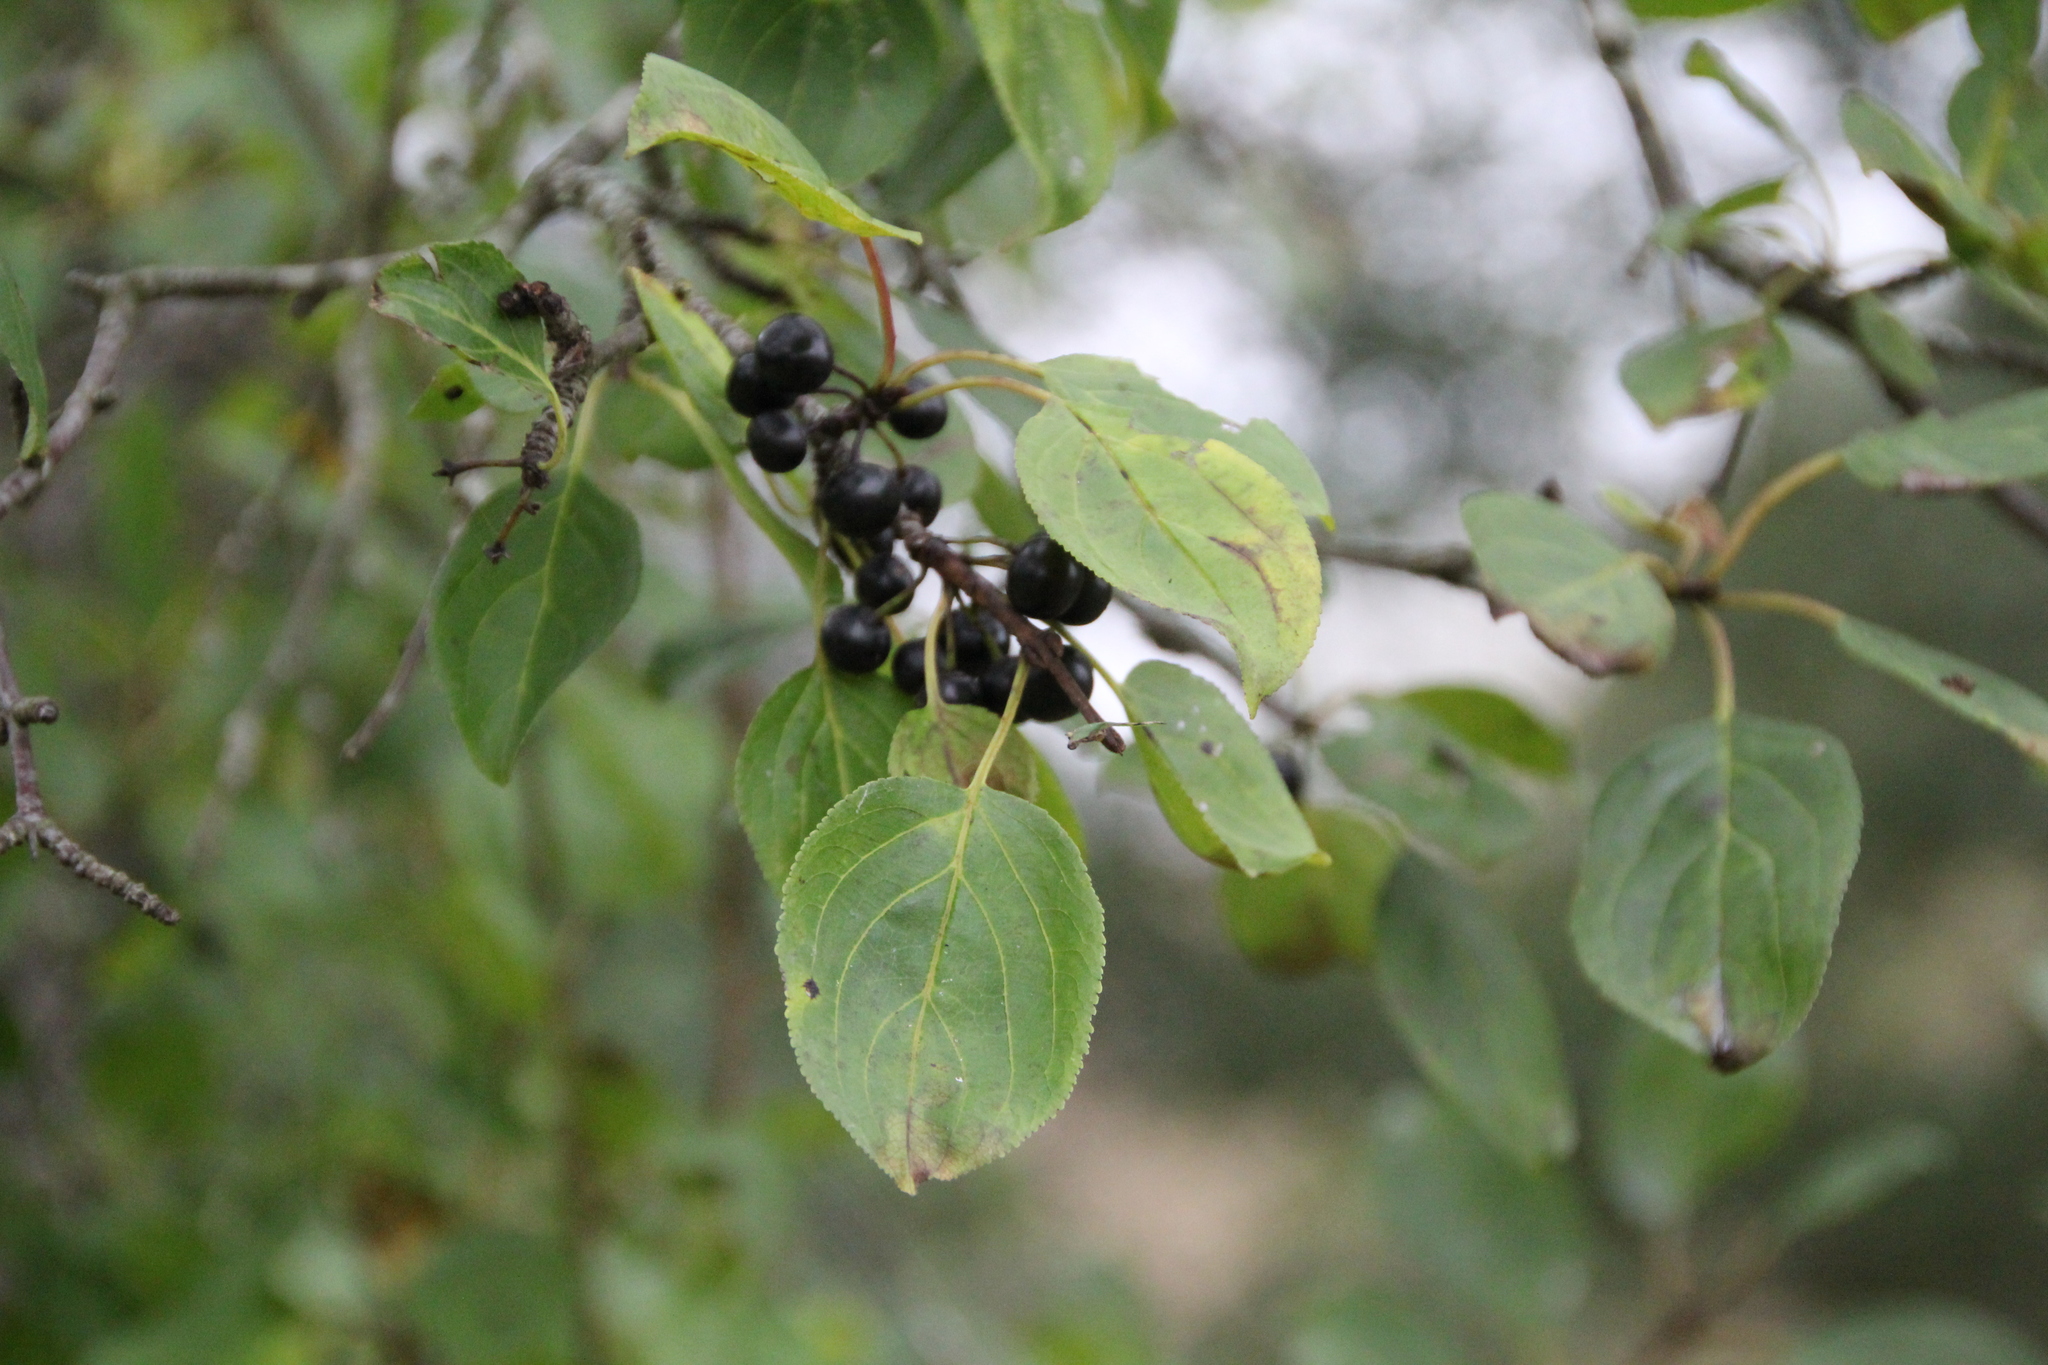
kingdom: Plantae
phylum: Tracheophyta
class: Magnoliopsida
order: Rosales
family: Rhamnaceae
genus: Rhamnus
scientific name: Rhamnus cathartica
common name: Common buckthorn
